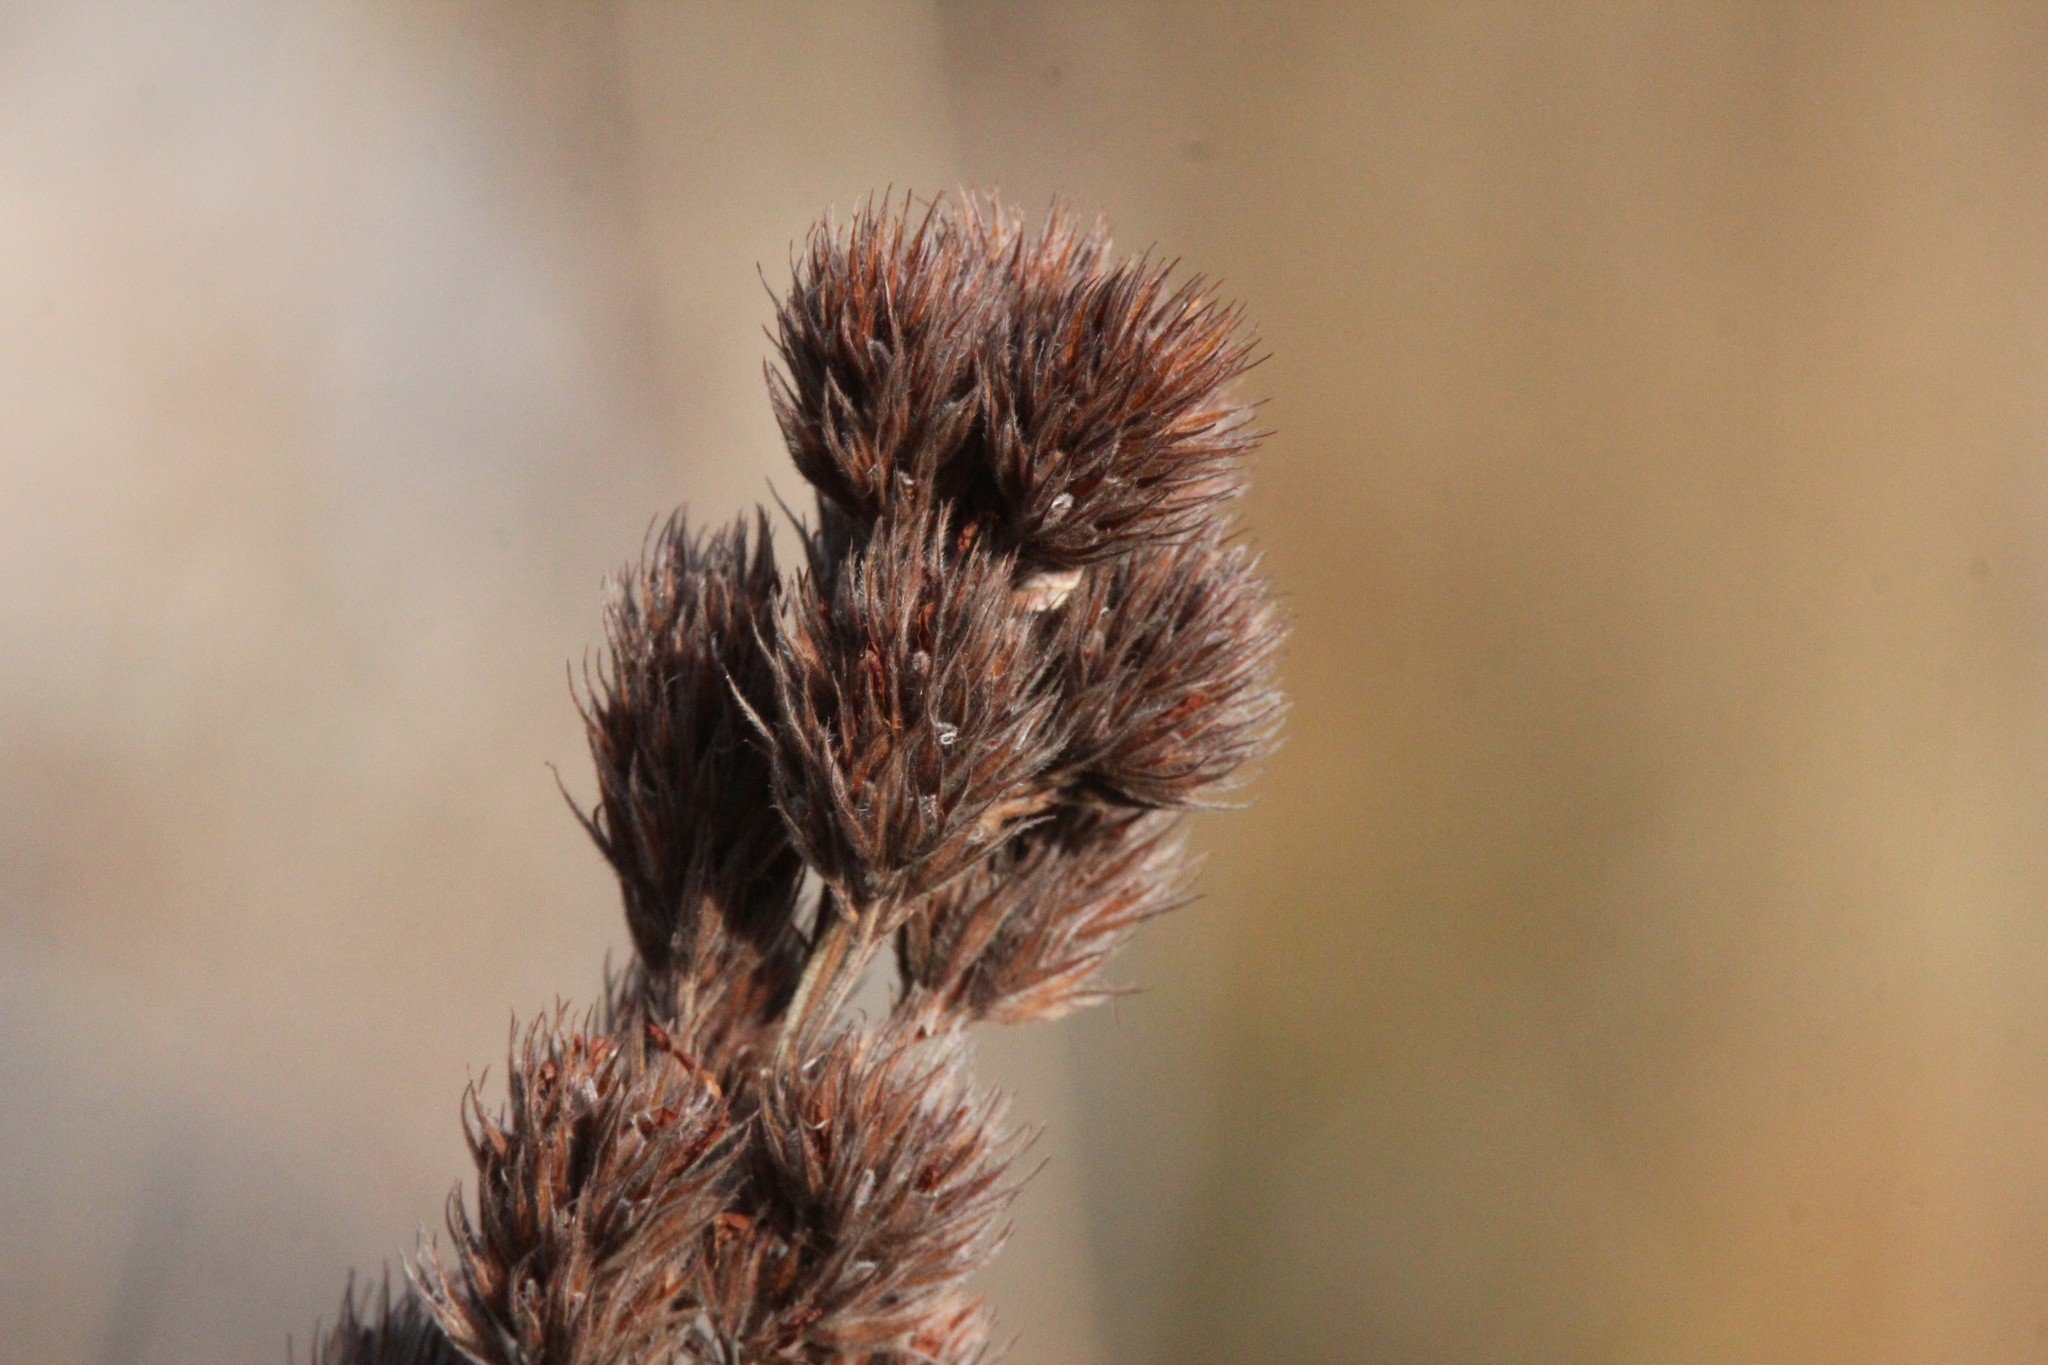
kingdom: Plantae
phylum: Tracheophyta
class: Magnoliopsida
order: Fabales
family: Fabaceae
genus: Lespedeza
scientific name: Lespedeza capitata
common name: Dusty clover
